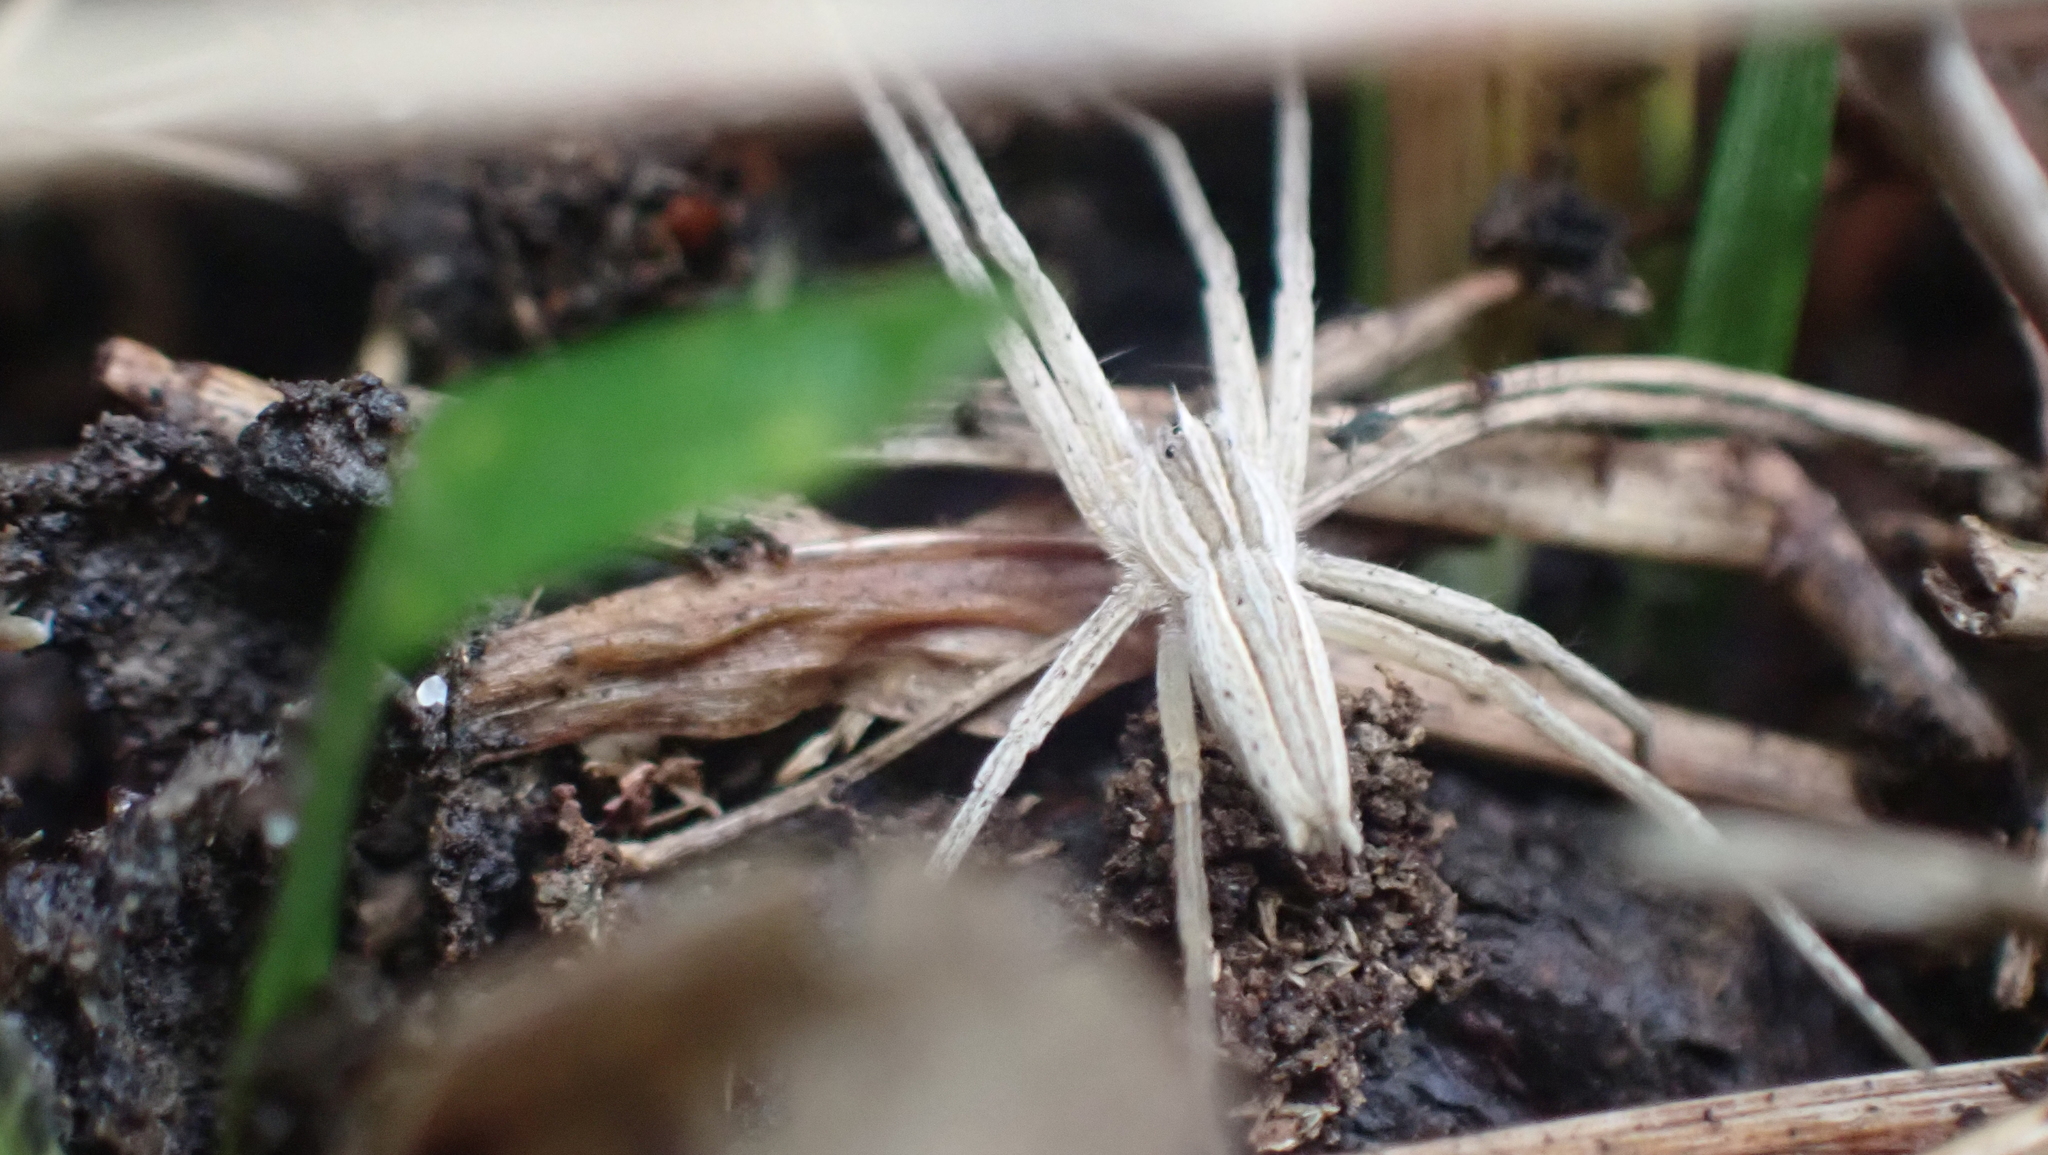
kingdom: Animalia
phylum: Arthropoda
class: Arachnida
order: Araneae
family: Pisauridae
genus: Pisaurina
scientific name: Pisaurina dubia
